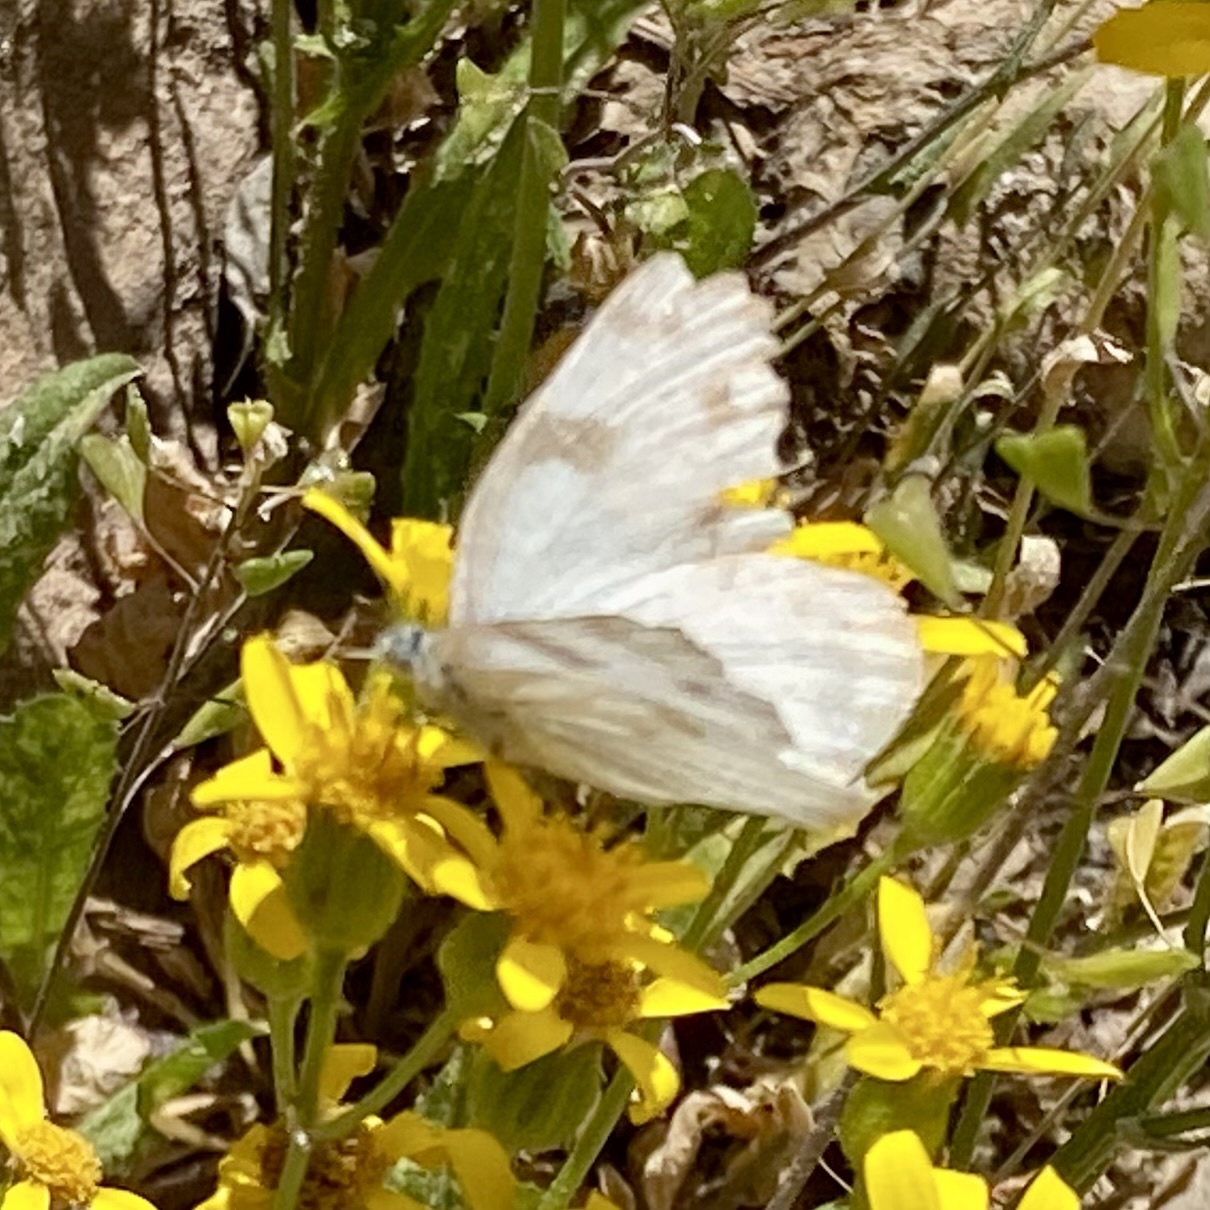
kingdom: Animalia
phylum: Arthropoda
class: Insecta
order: Lepidoptera
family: Pieridae
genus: Pontia
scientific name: Pontia protodice
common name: Checkered white
